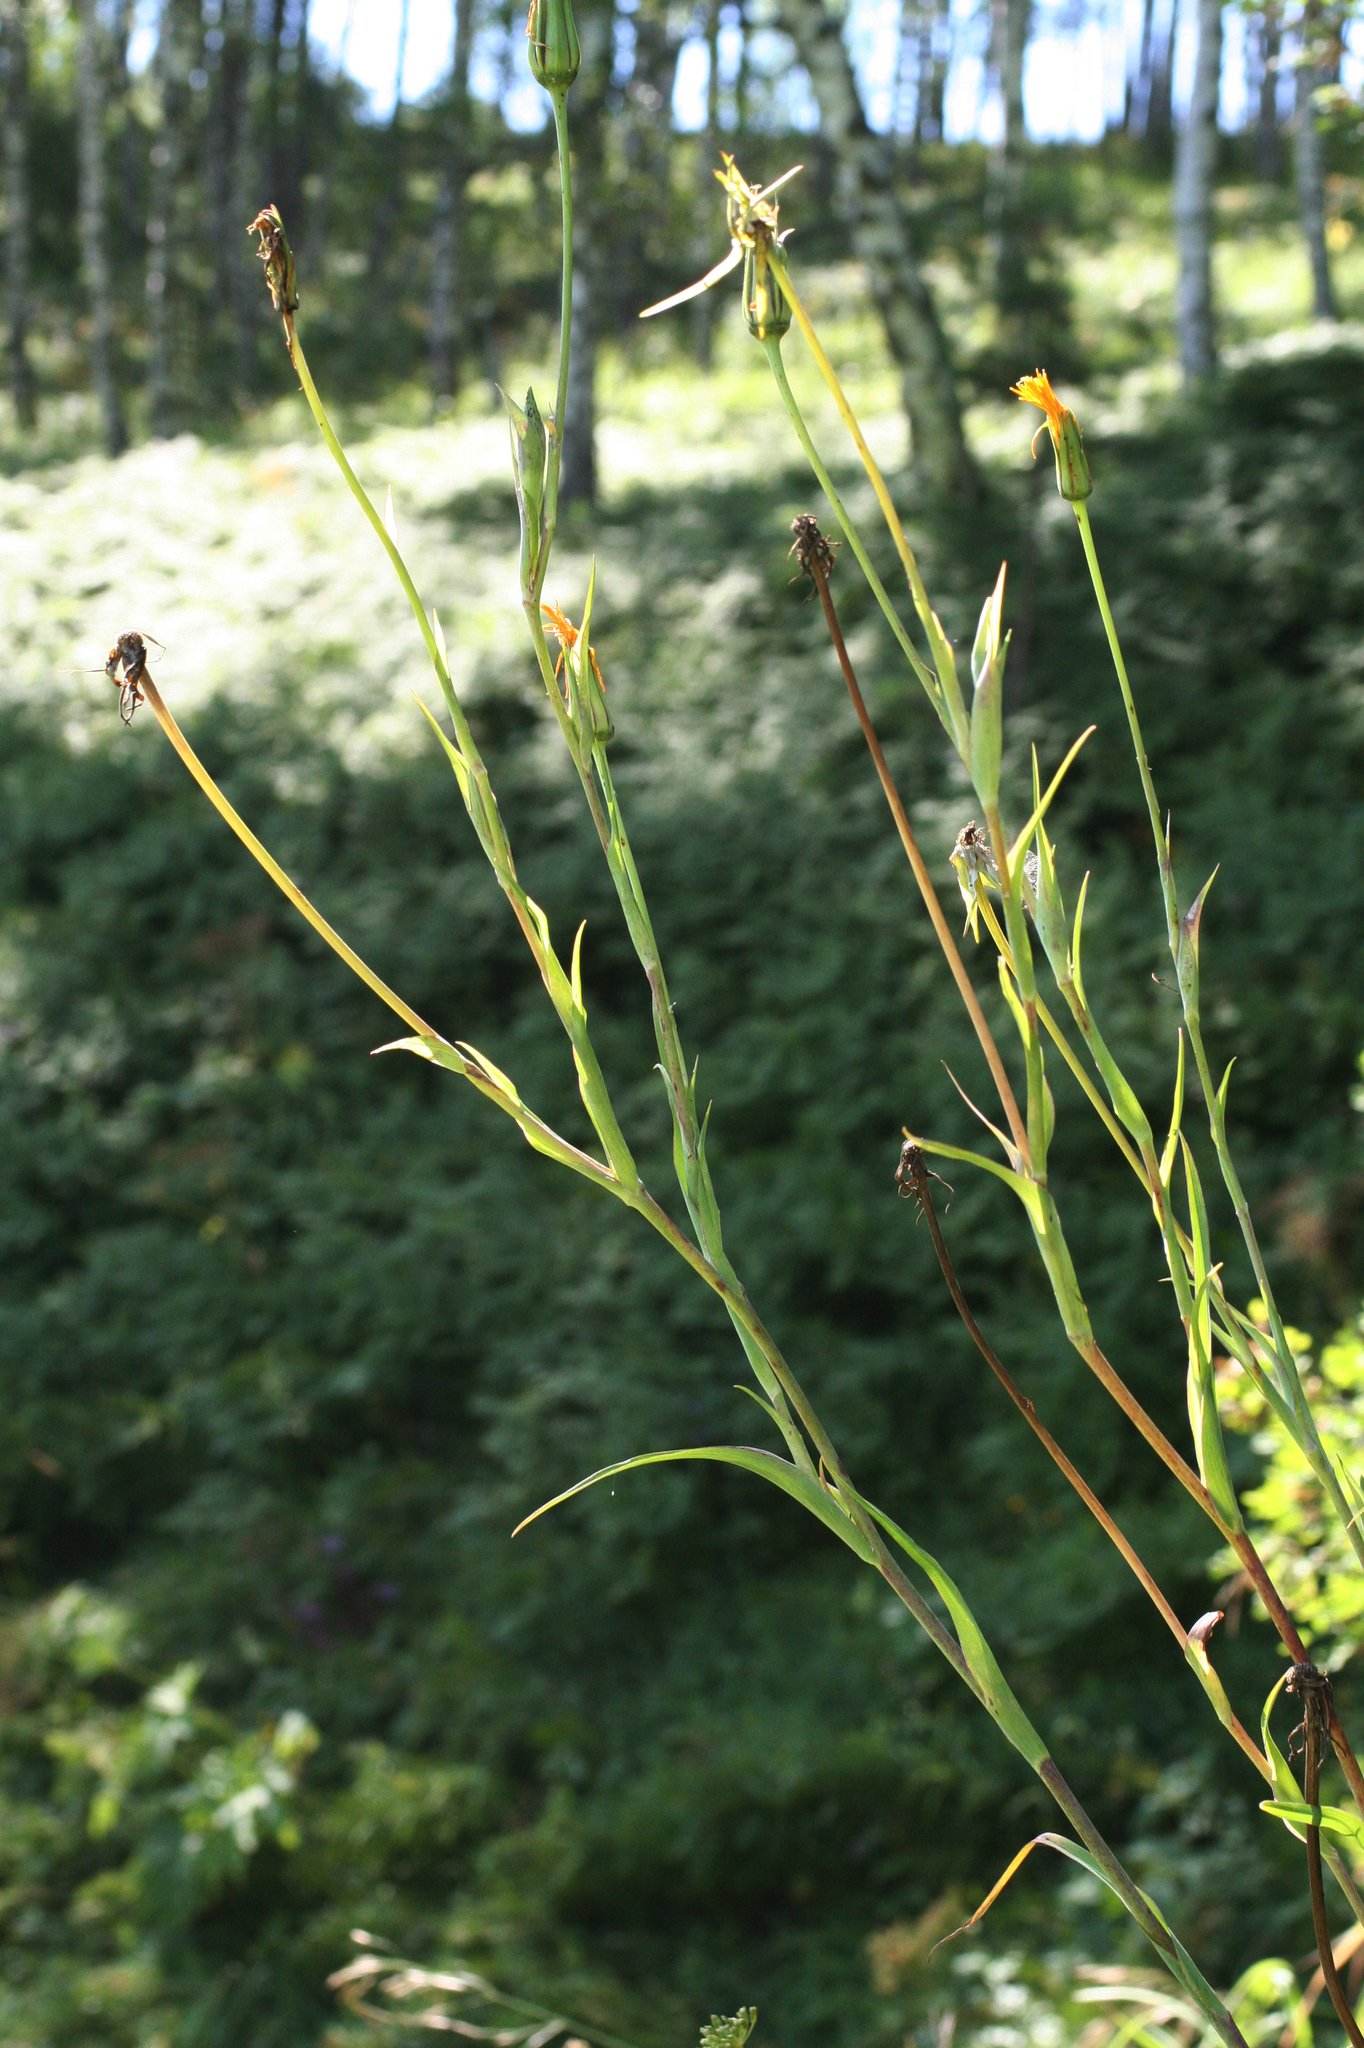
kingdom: Plantae
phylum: Tracheophyta
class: Magnoliopsida
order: Asterales
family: Asteraceae
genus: Tragopogon
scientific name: Tragopogon orientalis
